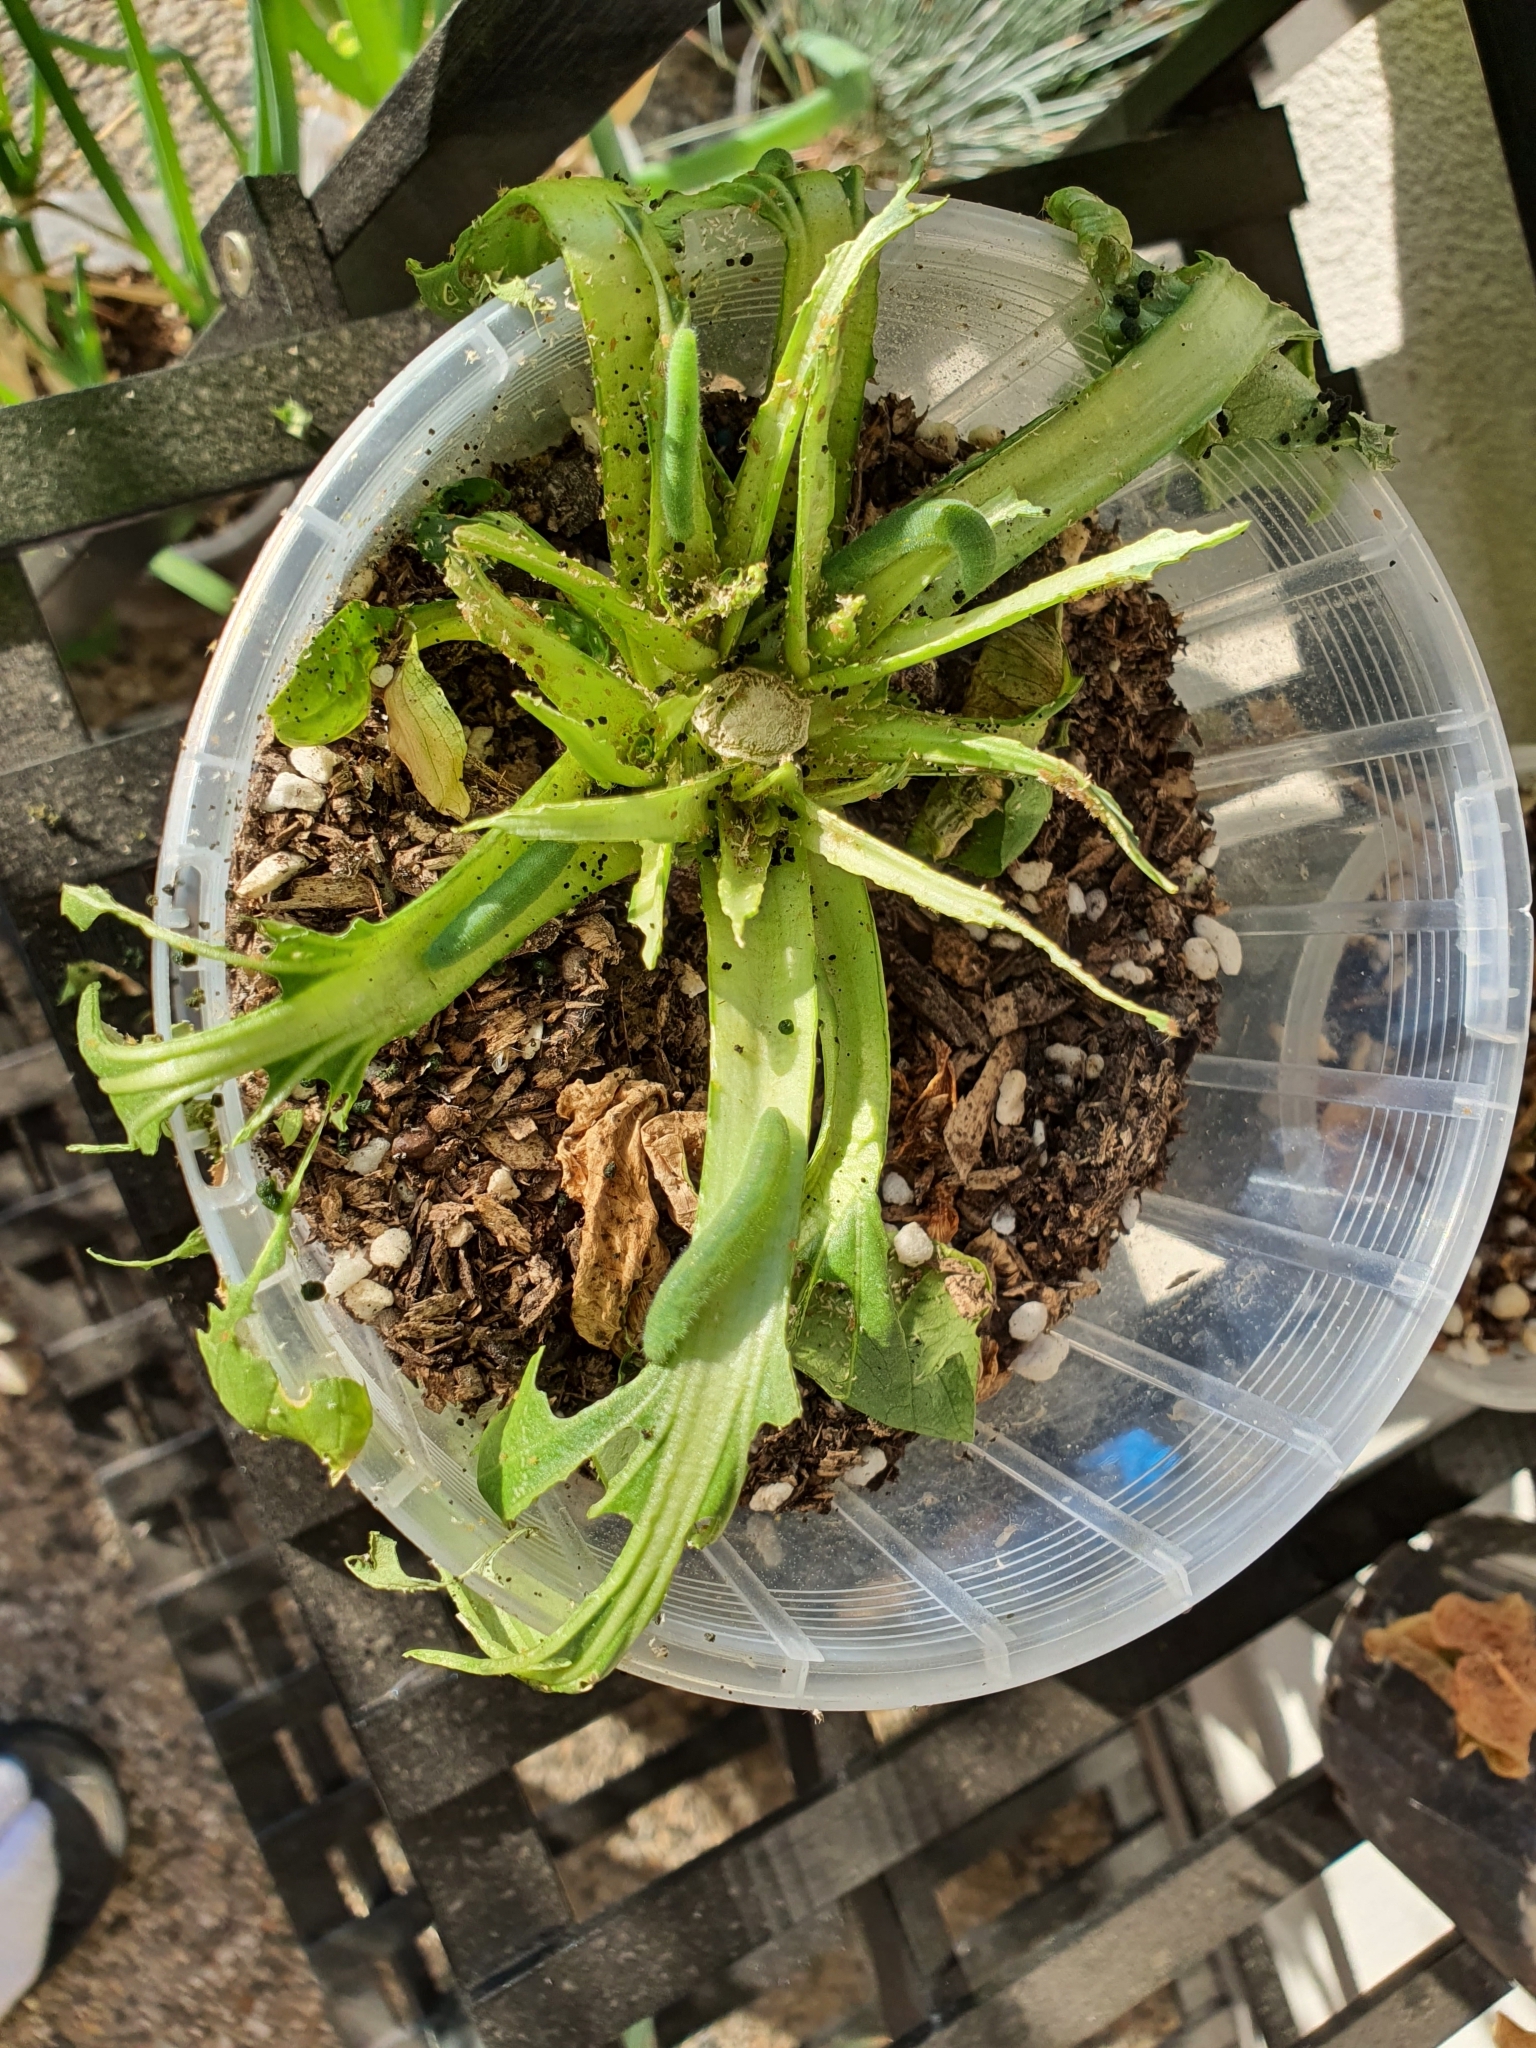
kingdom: Animalia
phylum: Arthropoda
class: Insecta
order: Lepidoptera
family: Pieridae
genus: Pieris
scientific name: Pieris rapae
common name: Small white
